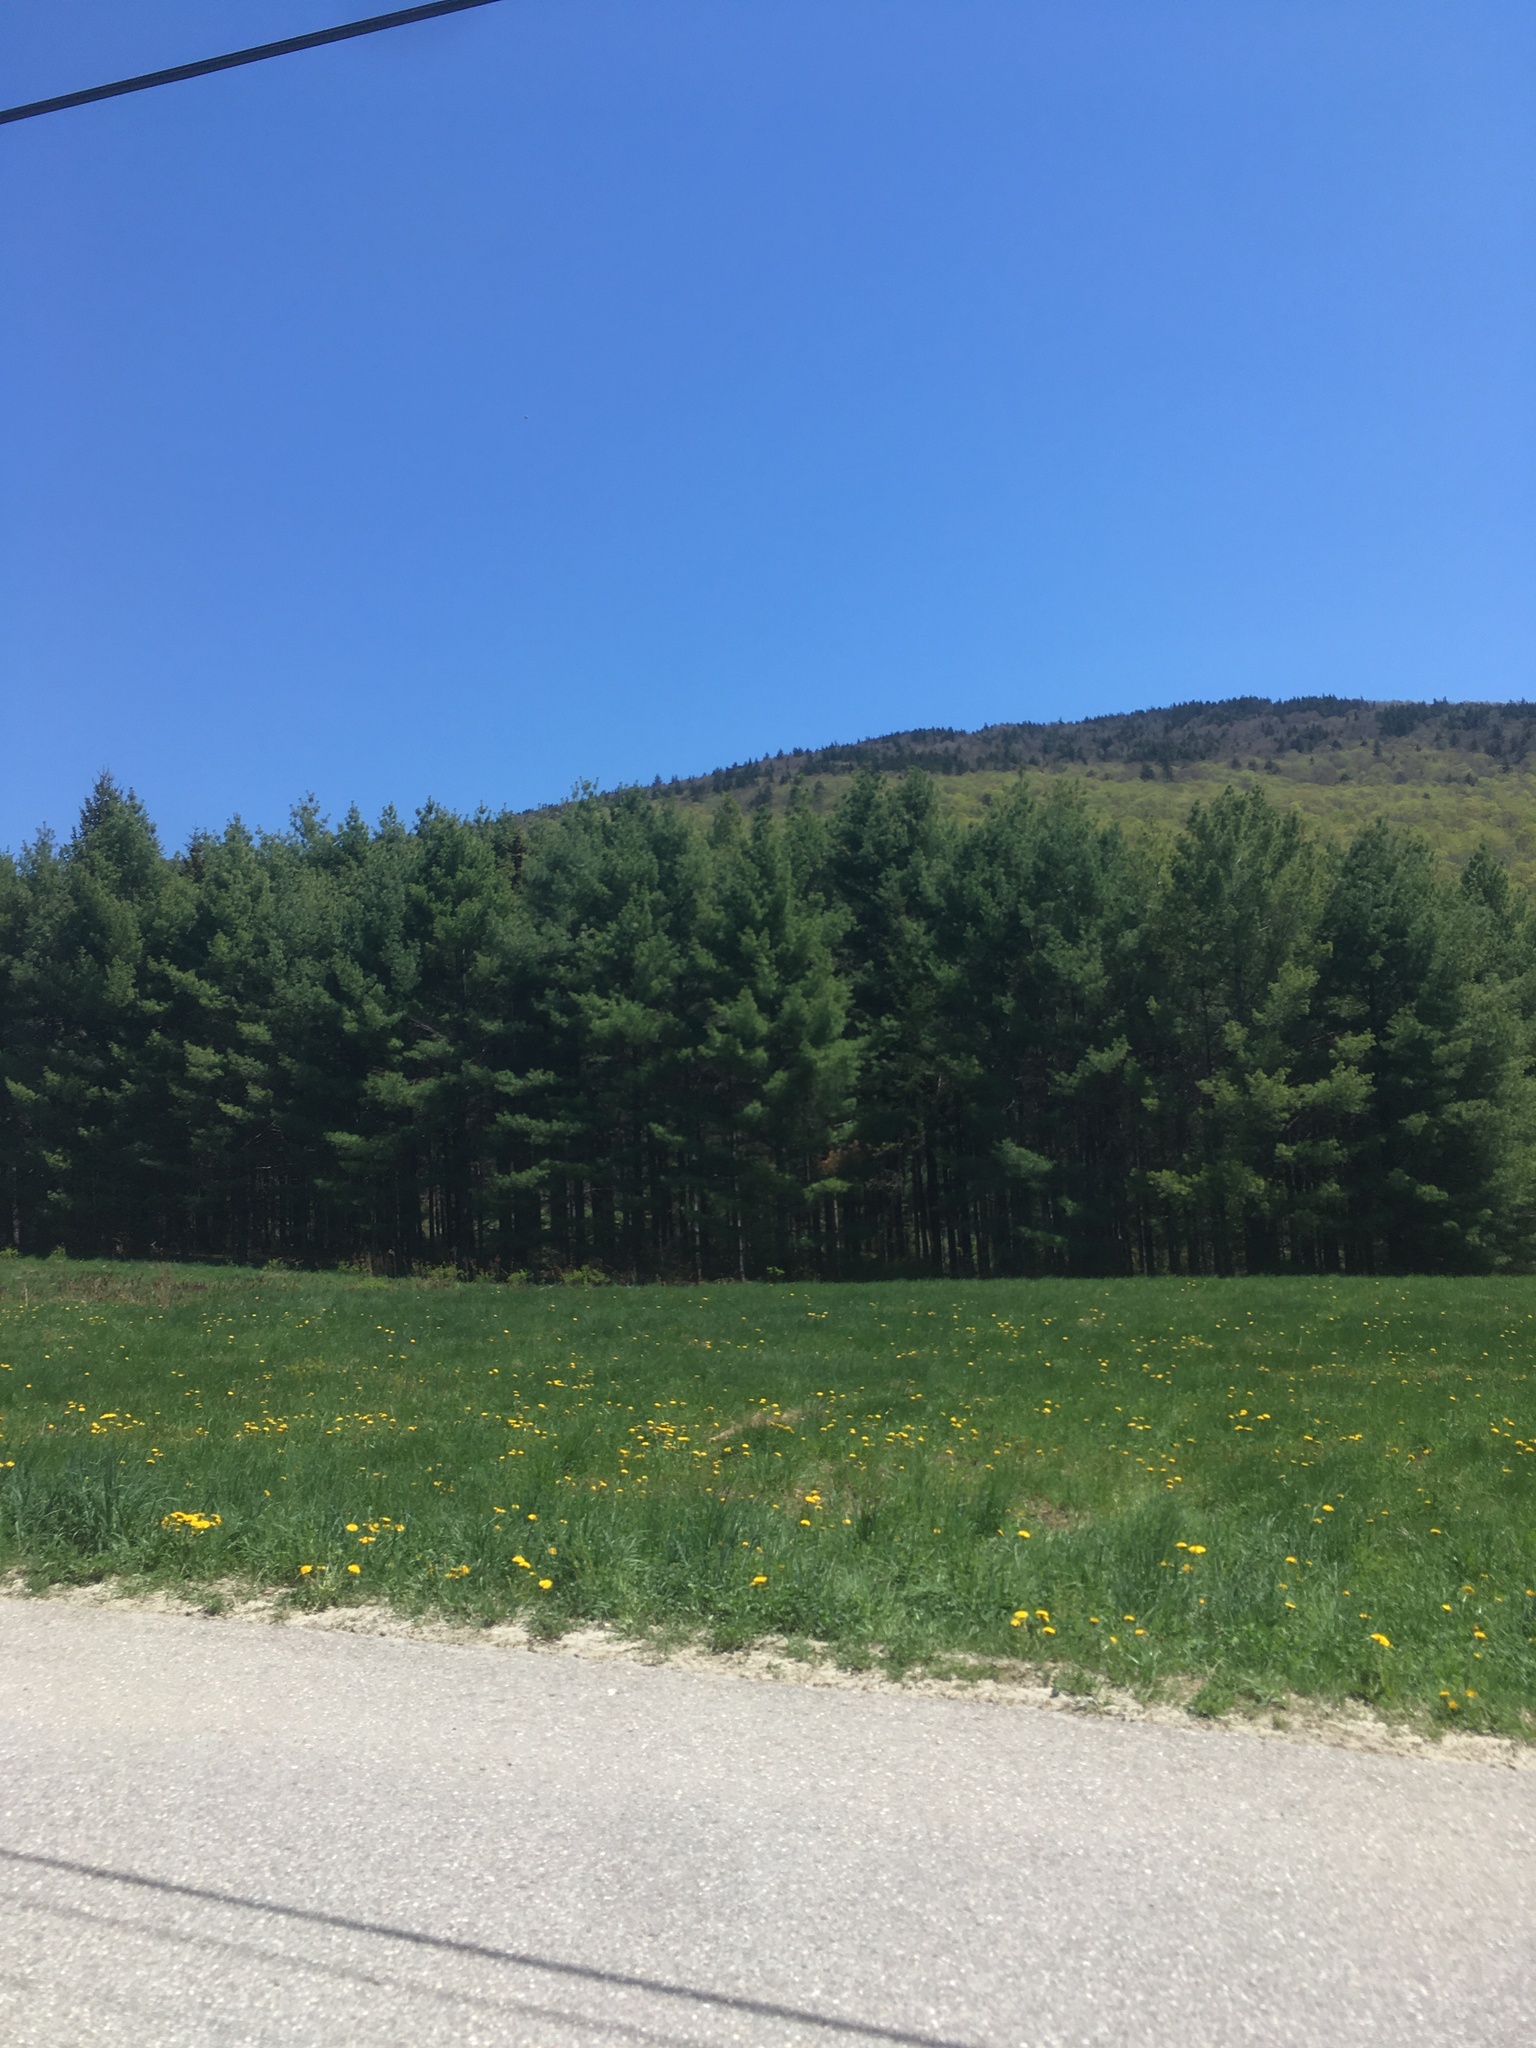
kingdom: Plantae
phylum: Tracheophyta
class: Pinopsida
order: Pinales
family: Pinaceae
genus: Pinus
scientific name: Pinus strobus
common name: Weymouth pine
